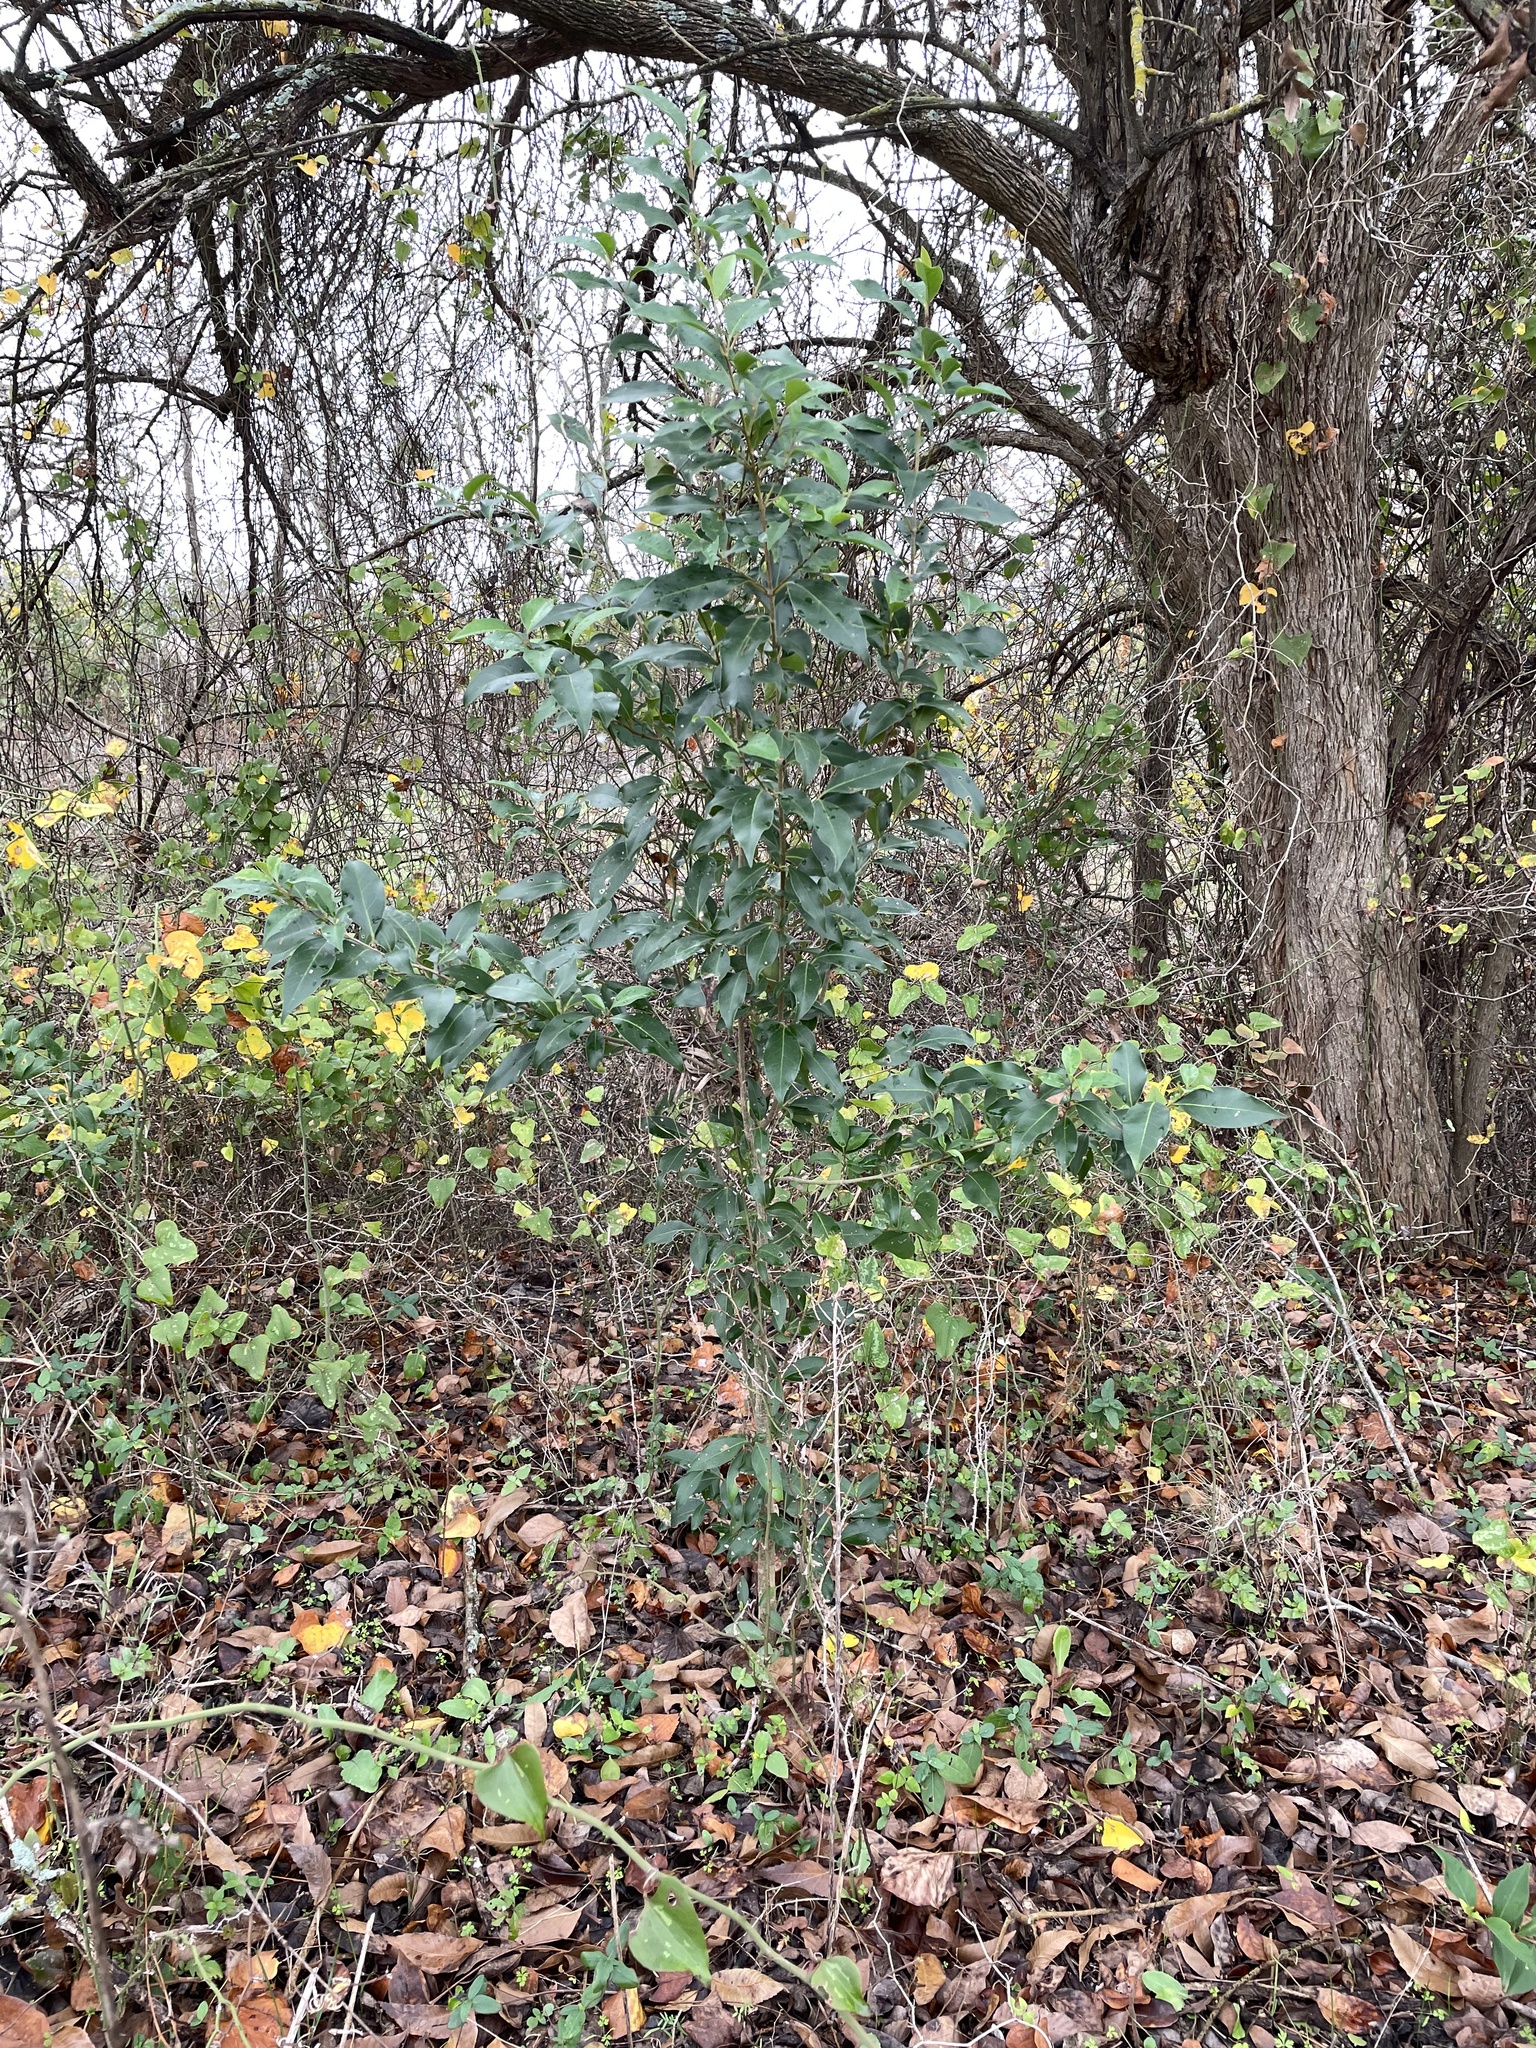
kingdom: Plantae
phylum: Tracheophyta
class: Magnoliopsida
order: Lamiales
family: Oleaceae
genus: Ligustrum
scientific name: Ligustrum lucidum
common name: Glossy privet
